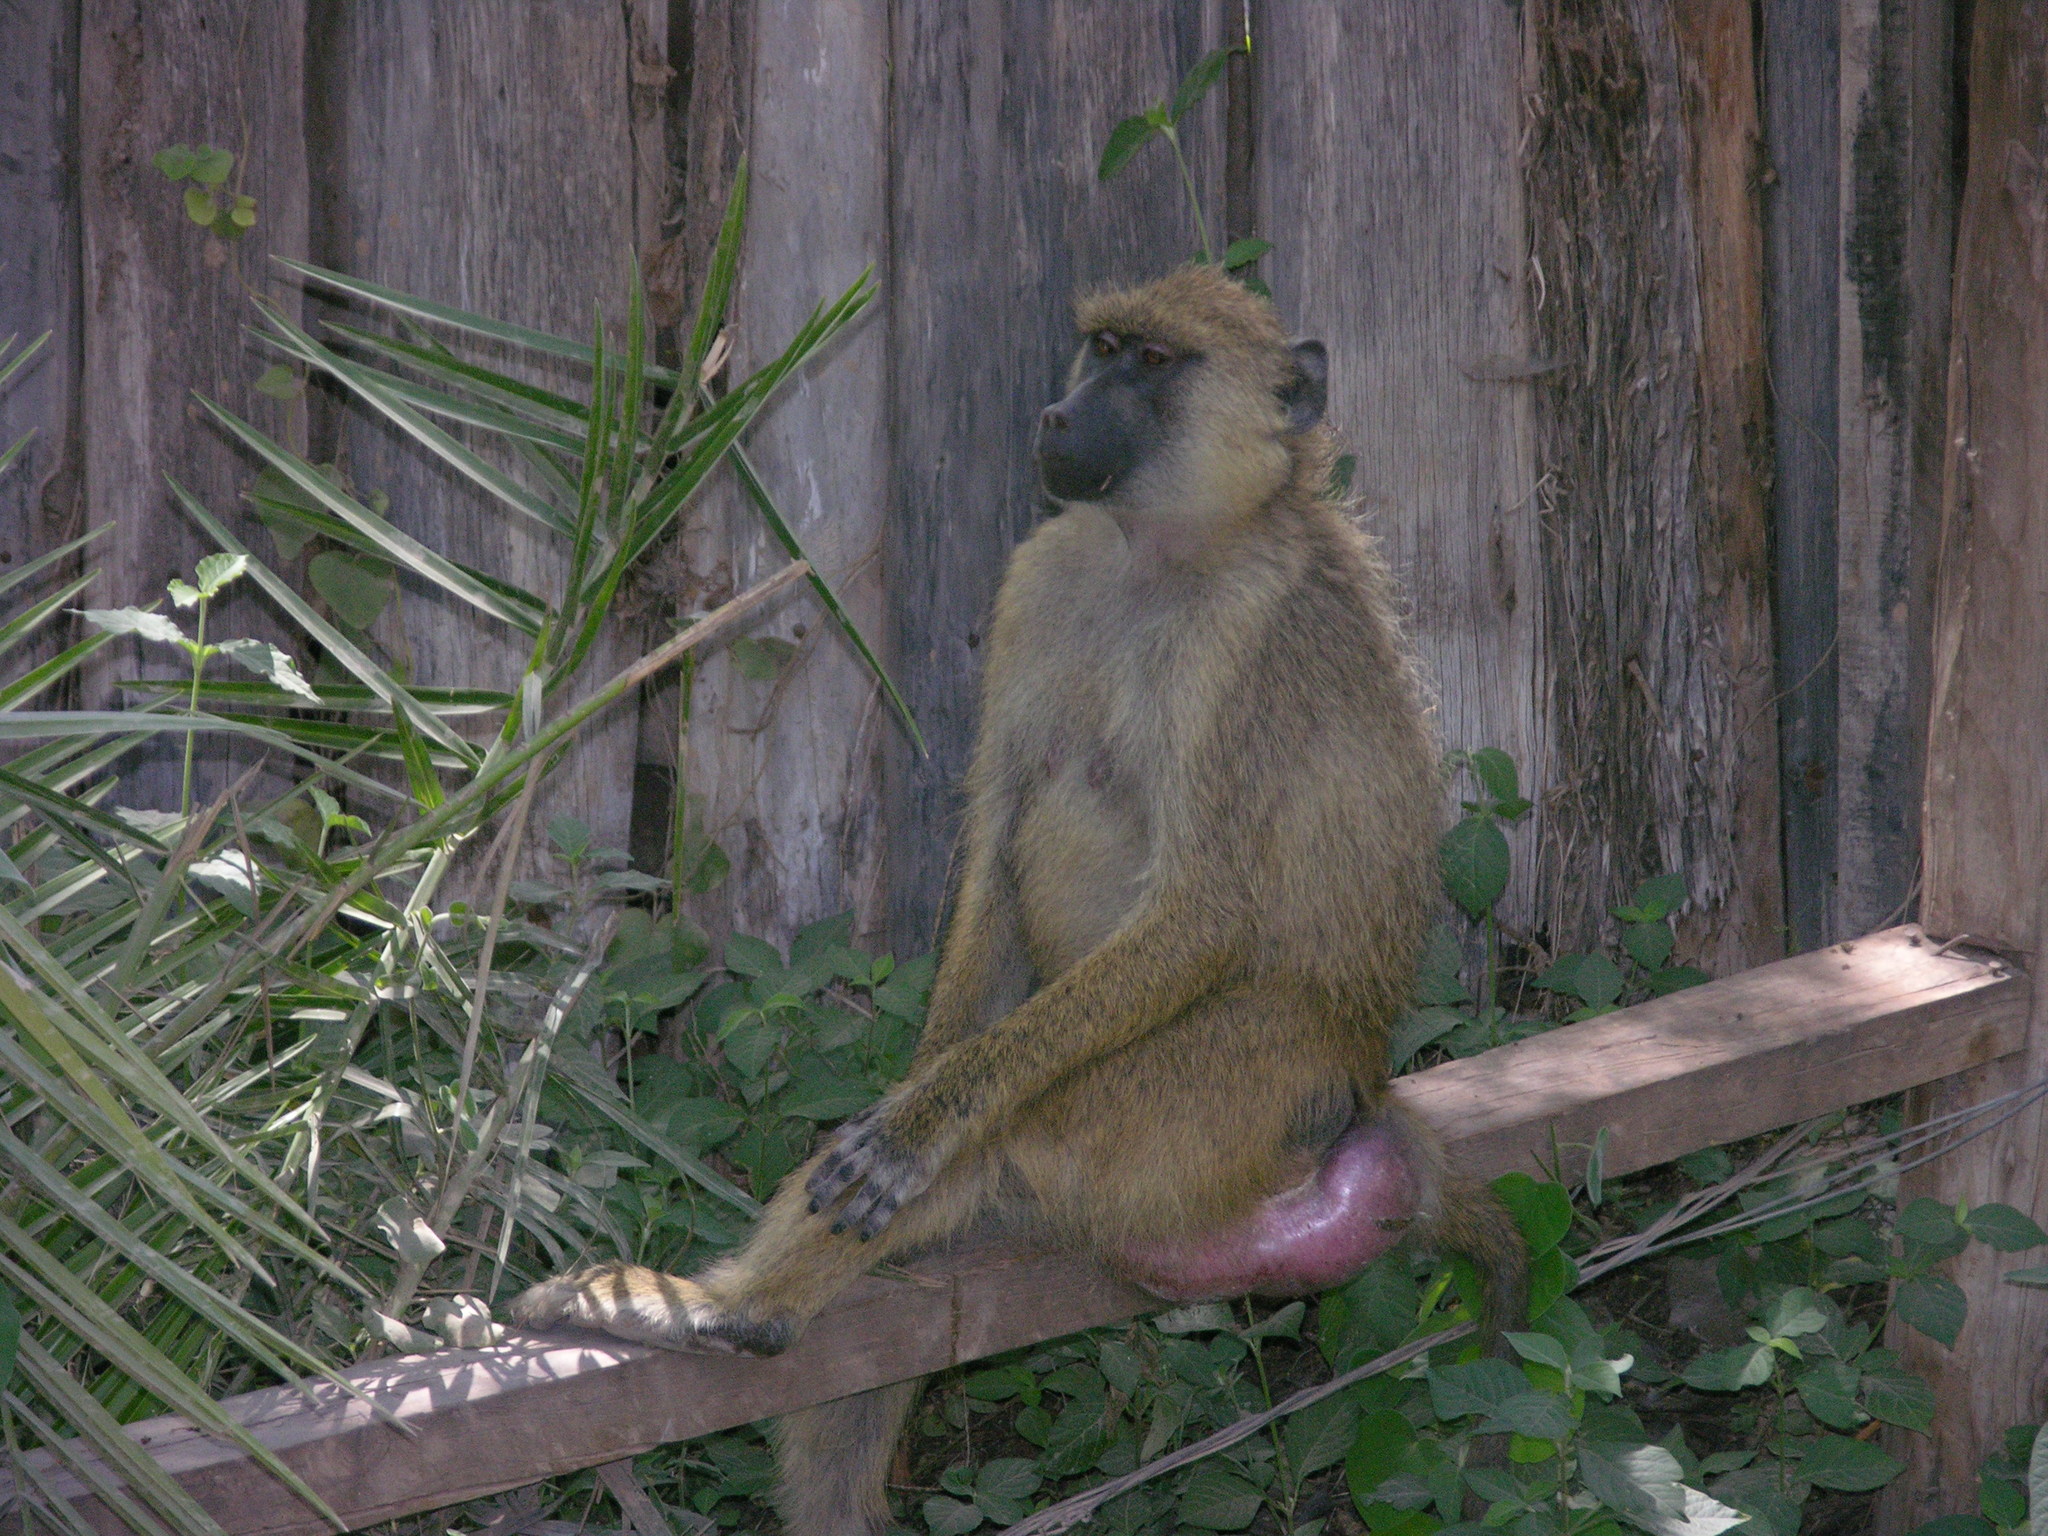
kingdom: Animalia
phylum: Chordata
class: Mammalia
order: Primates
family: Cercopithecidae
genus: Papio
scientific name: Papio cynocephalus
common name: Yellow baboon
